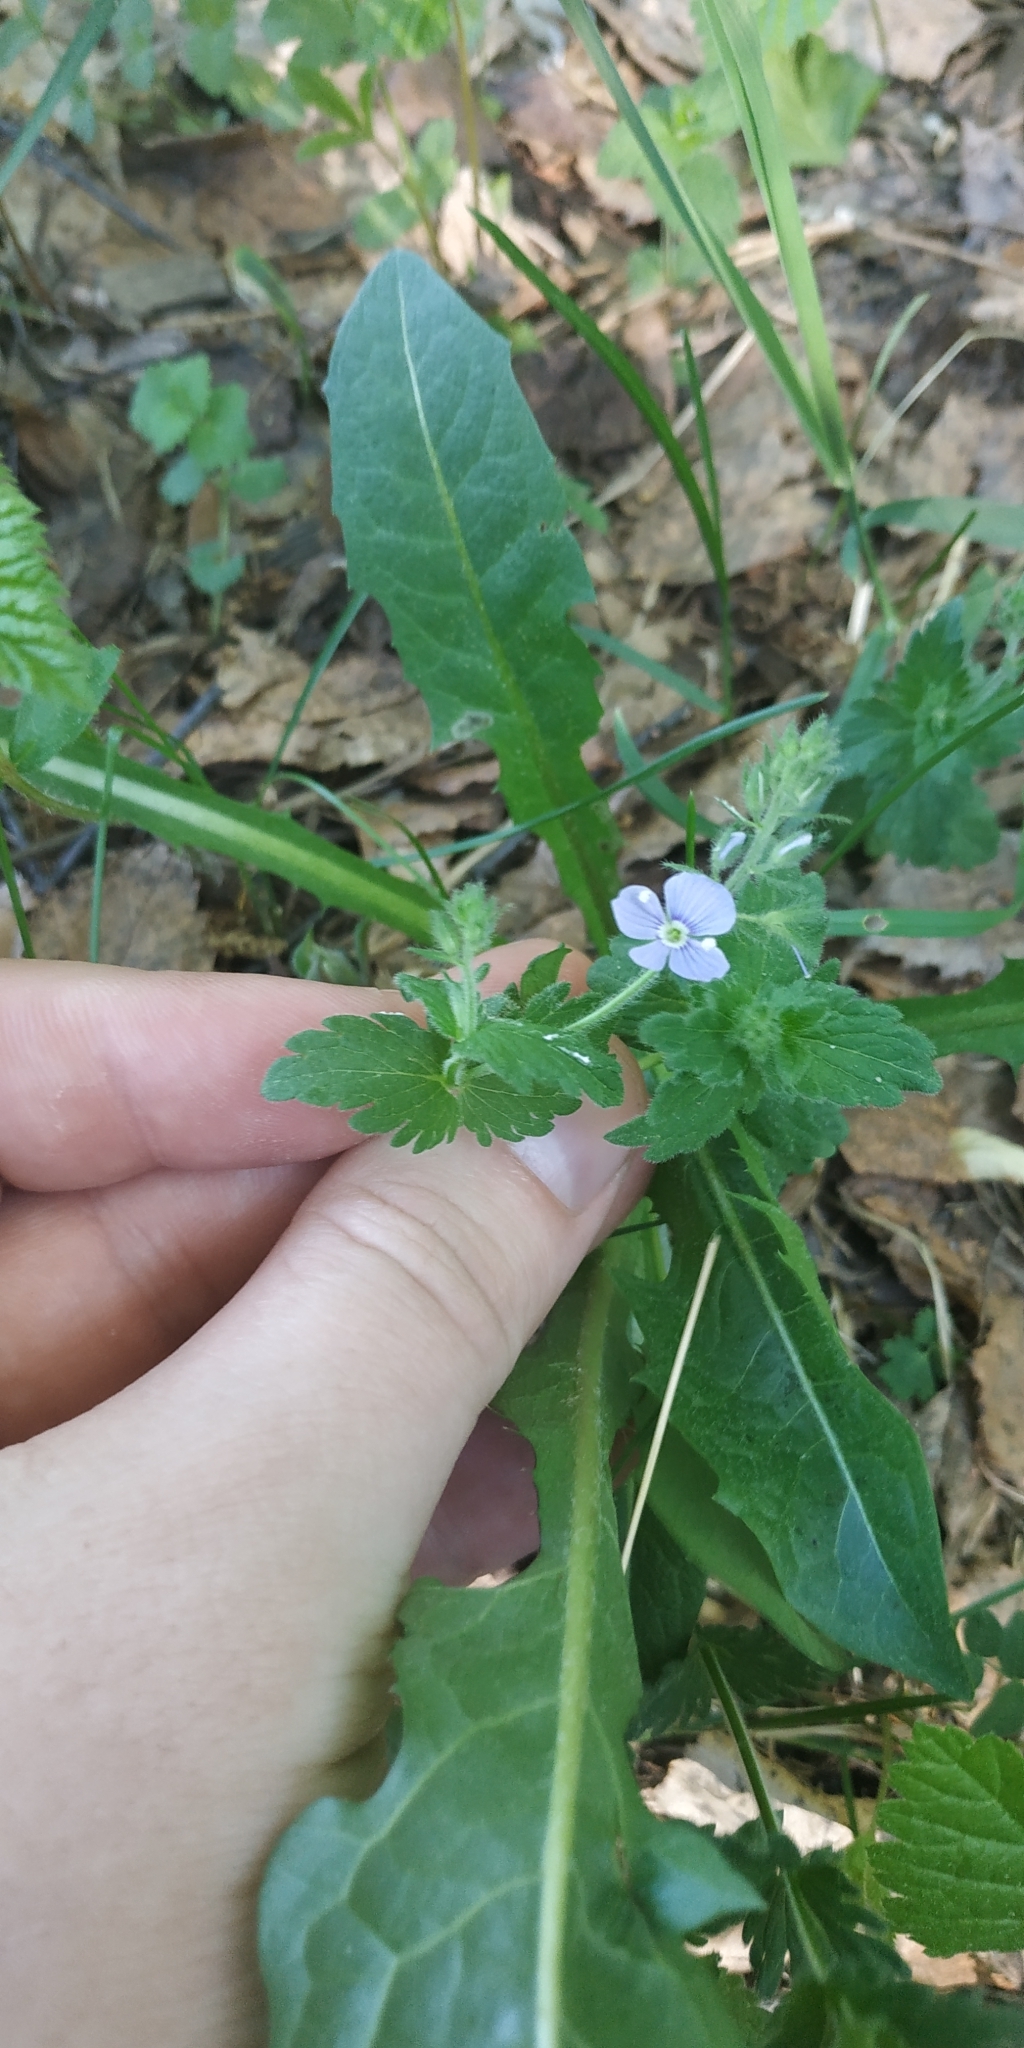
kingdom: Plantae
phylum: Tracheophyta
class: Magnoliopsida
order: Lamiales
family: Plantaginaceae
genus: Veronica
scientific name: Veronica chamaedrys
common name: Germander speedwell
